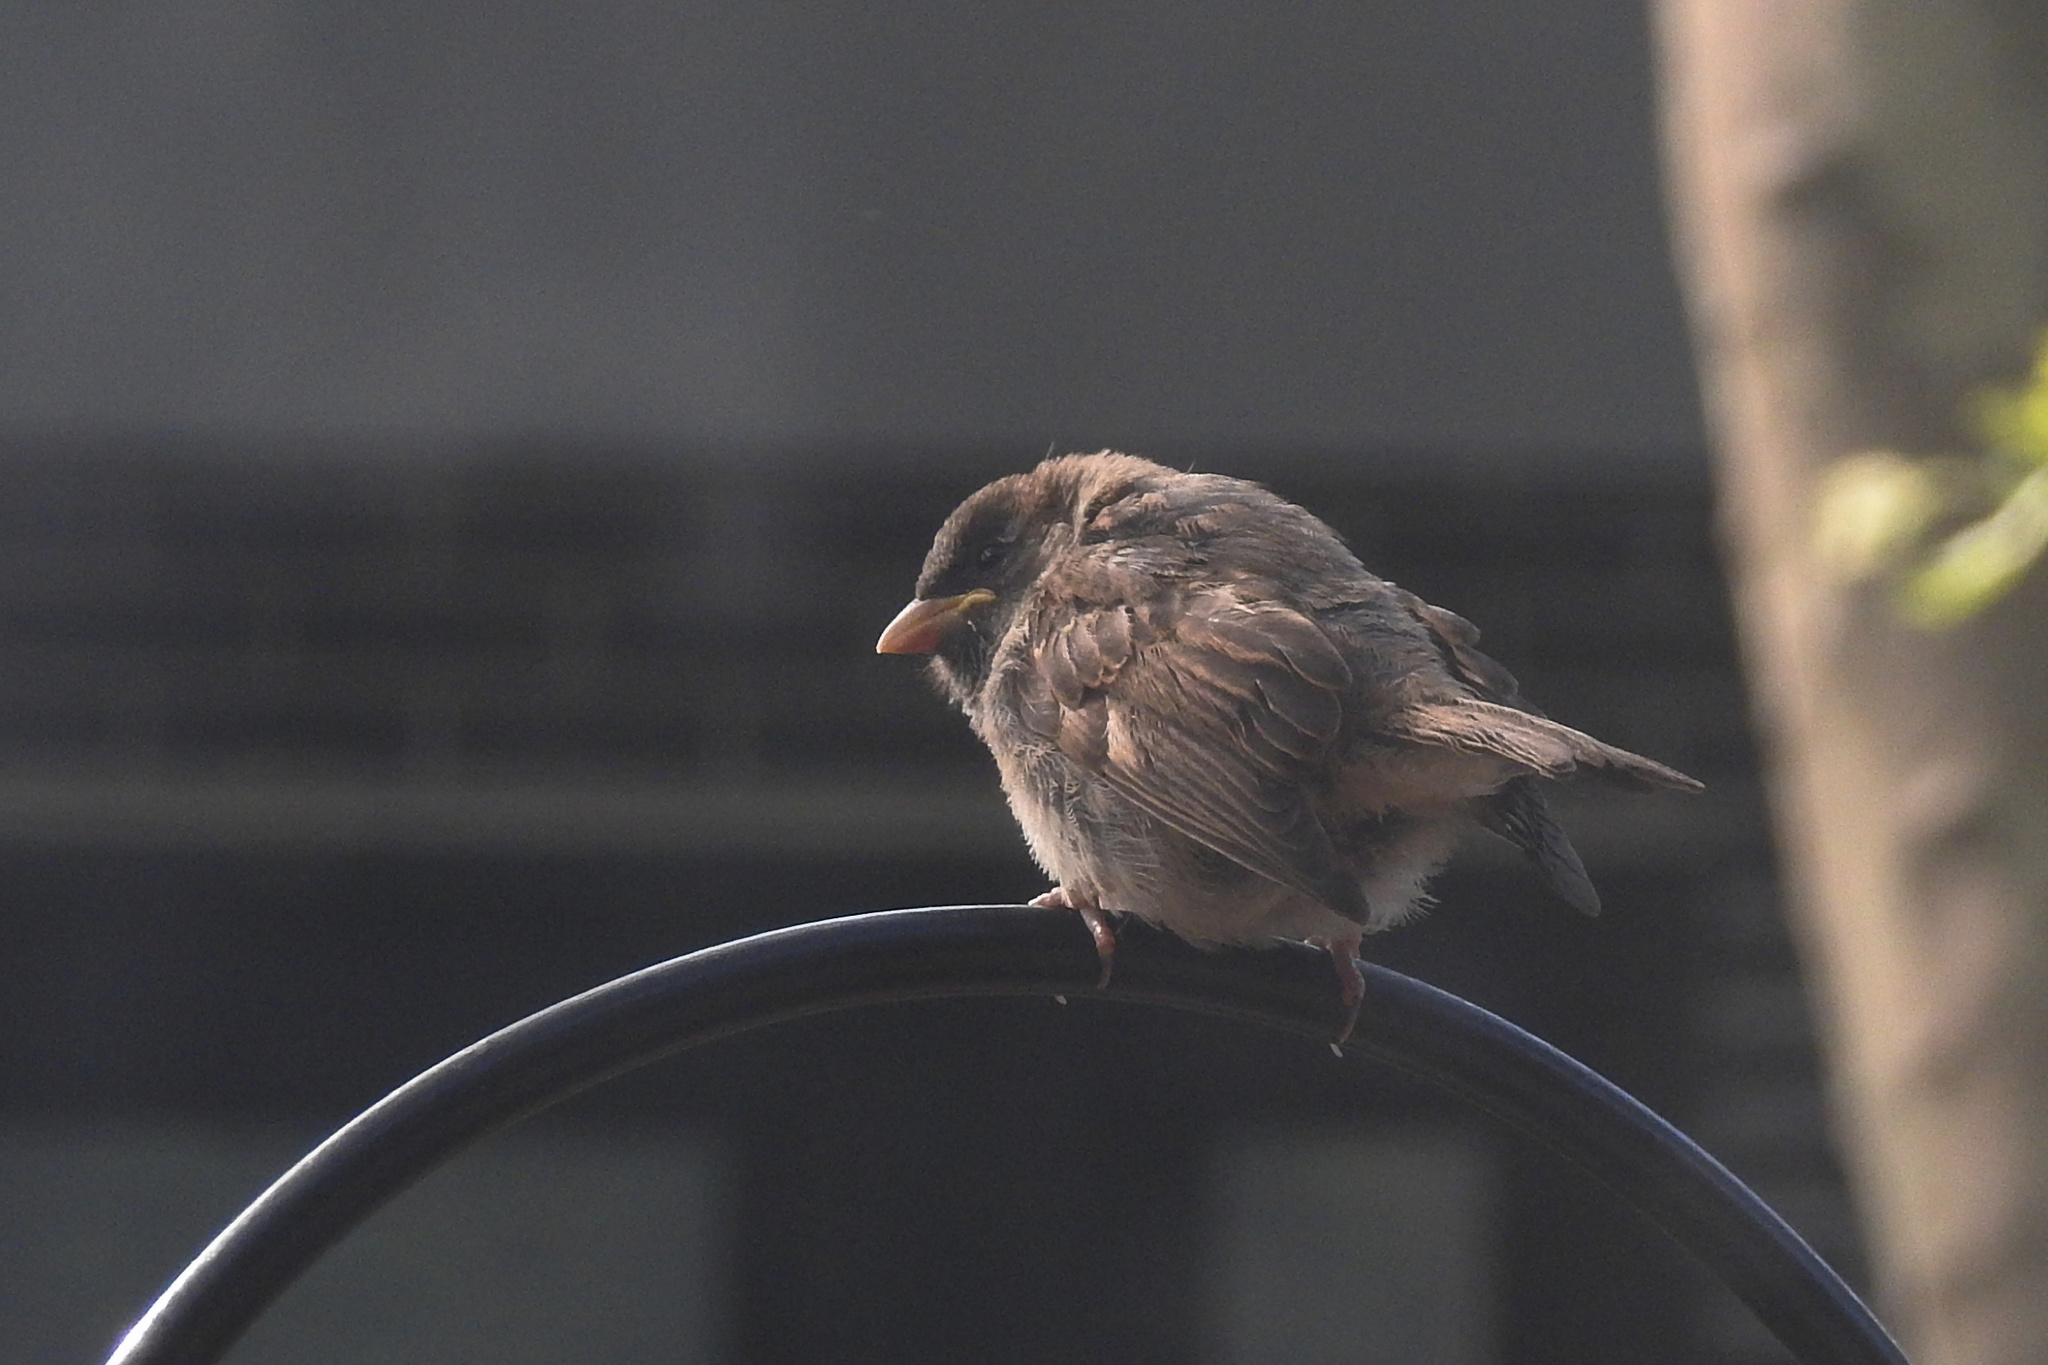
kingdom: Animalia
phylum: Chordata
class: Aves
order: Passeriformes
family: Passeridae
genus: Passer
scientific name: Passer domesticus
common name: House sparrow
